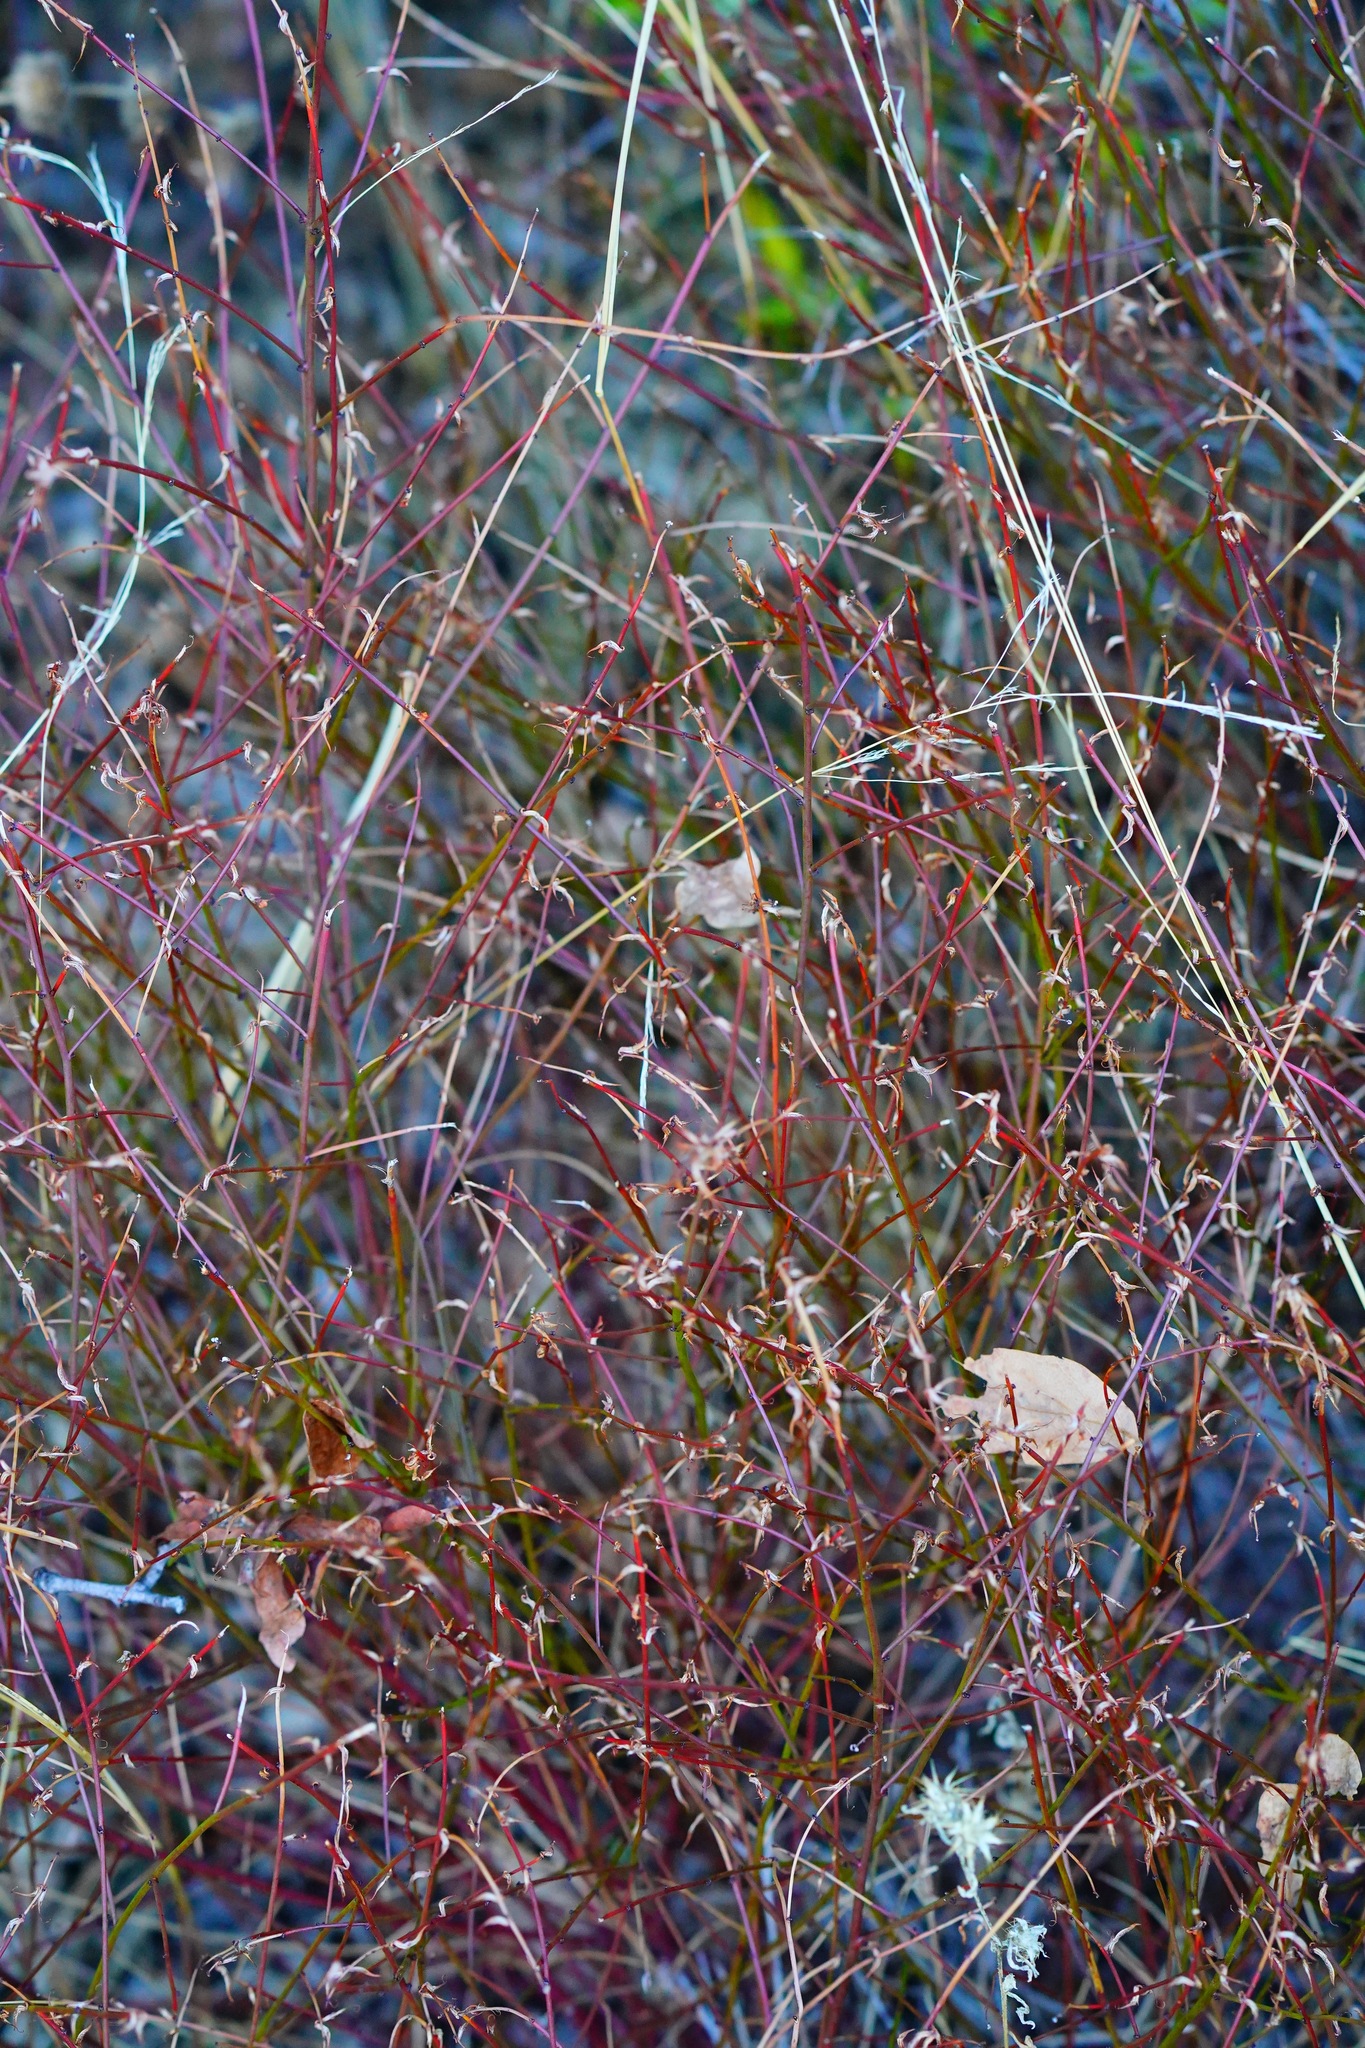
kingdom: Plantae
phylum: Tracheophyta
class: Magnoliopsida
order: Fabales
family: Fabaceae
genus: Acmispon
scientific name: Acmispon glaber
